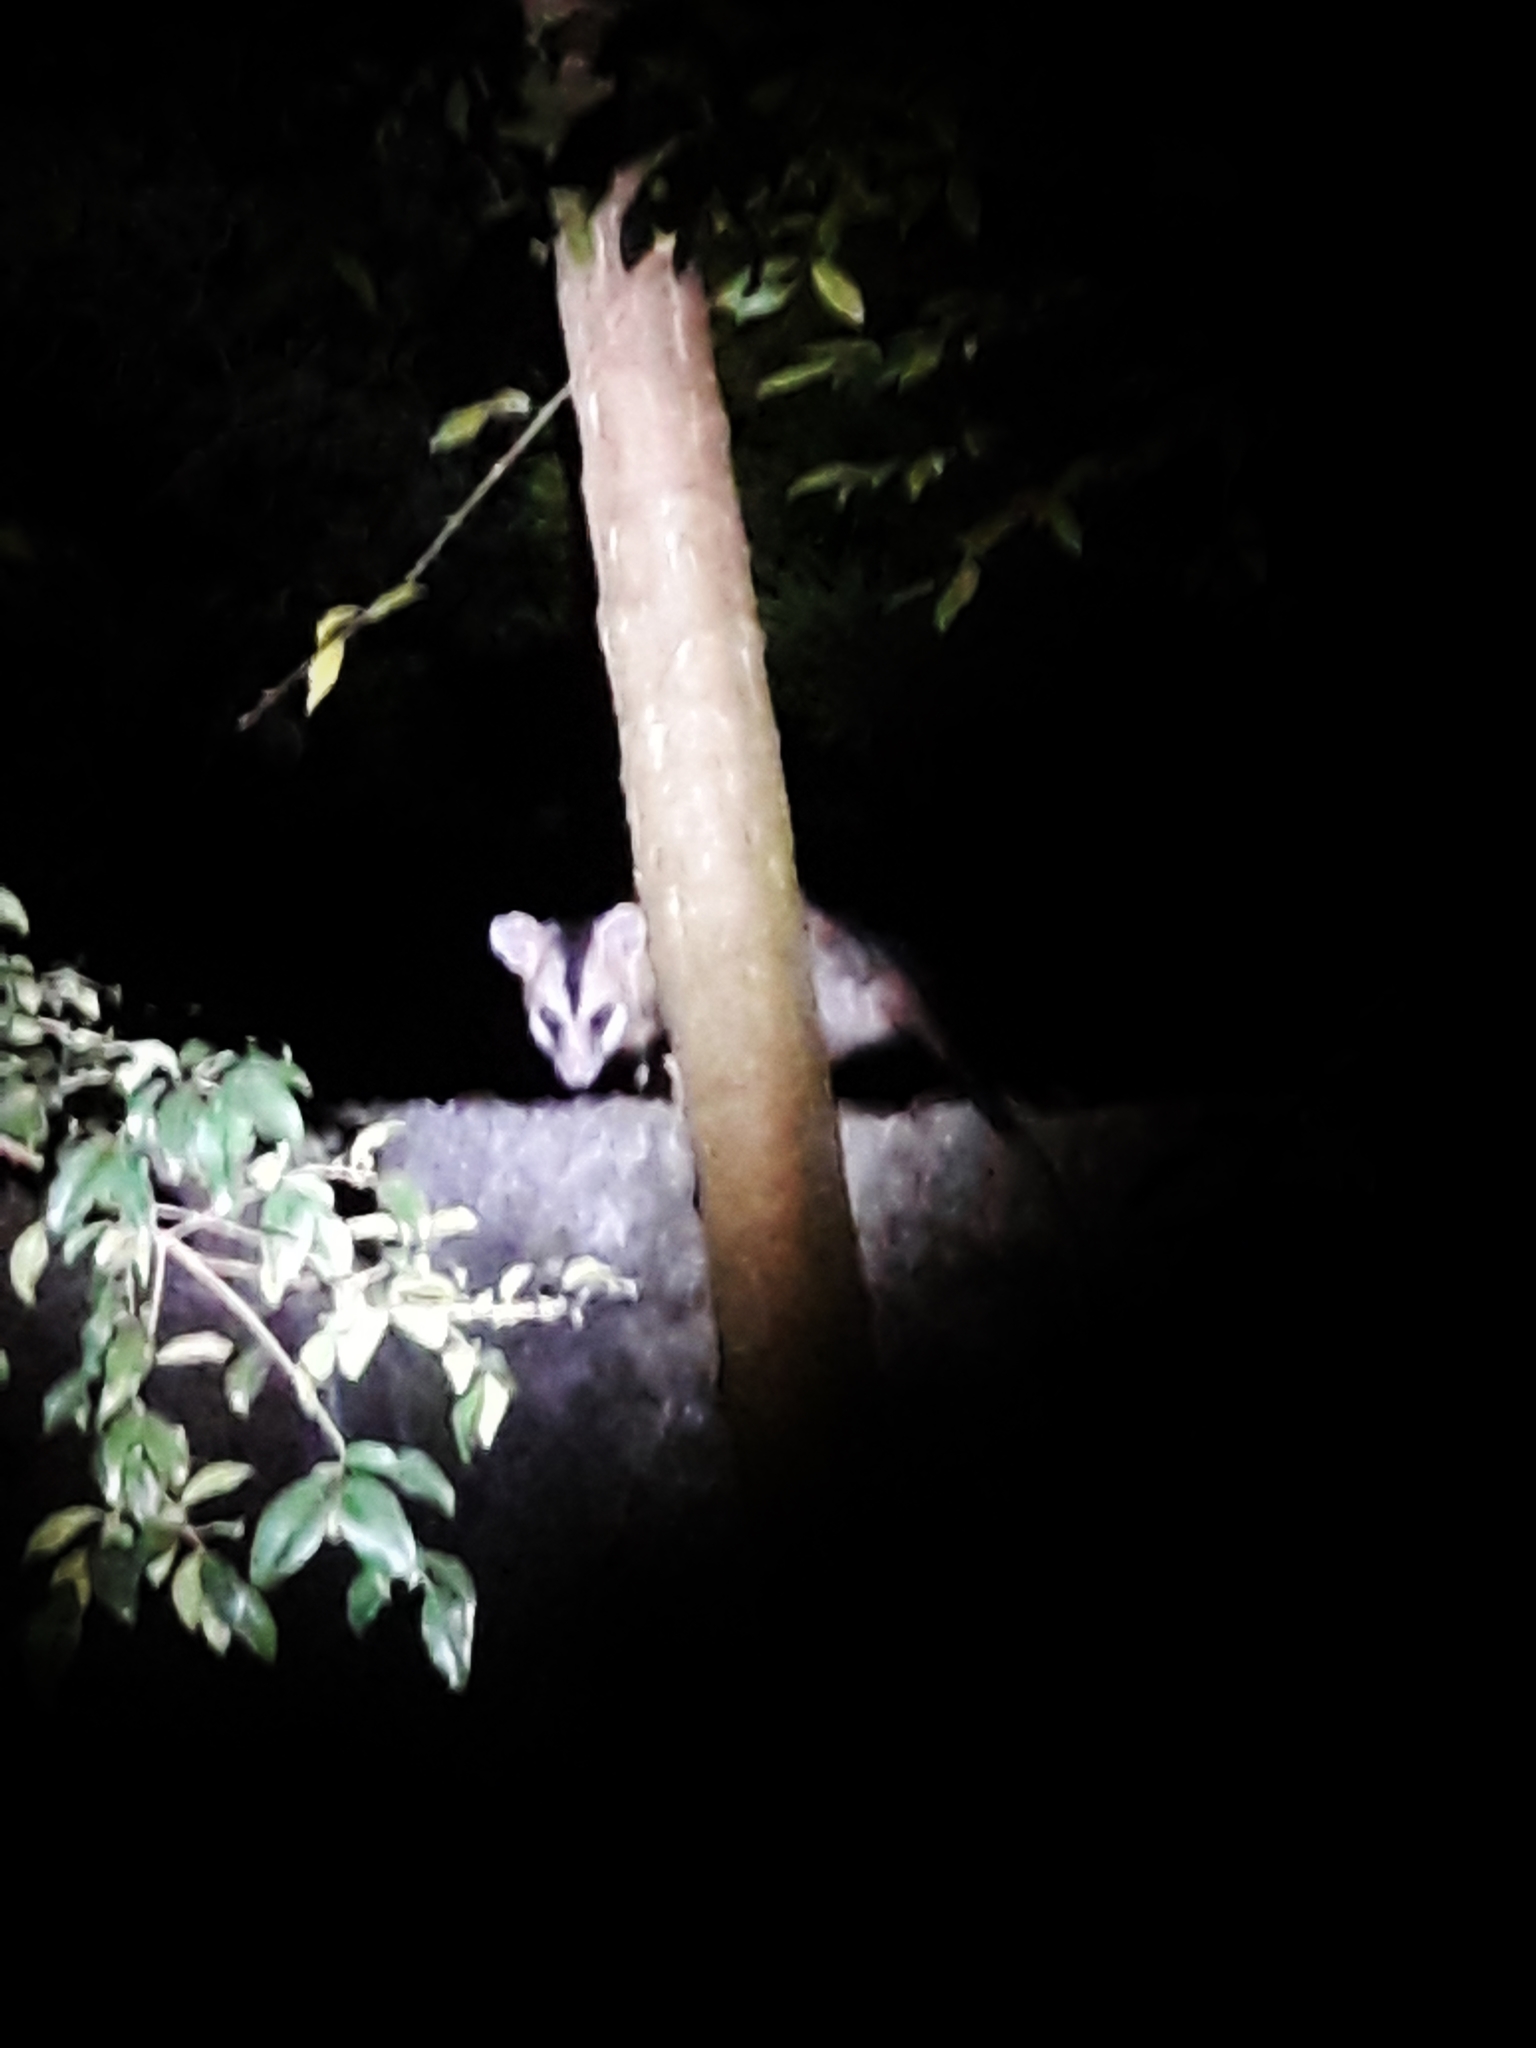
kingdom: Animalia
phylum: Chordata
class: Mammalia
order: Didelphimorphia
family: Didelphidae
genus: Didelphis
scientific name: Didelphis albiventris
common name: White-eared opossum
